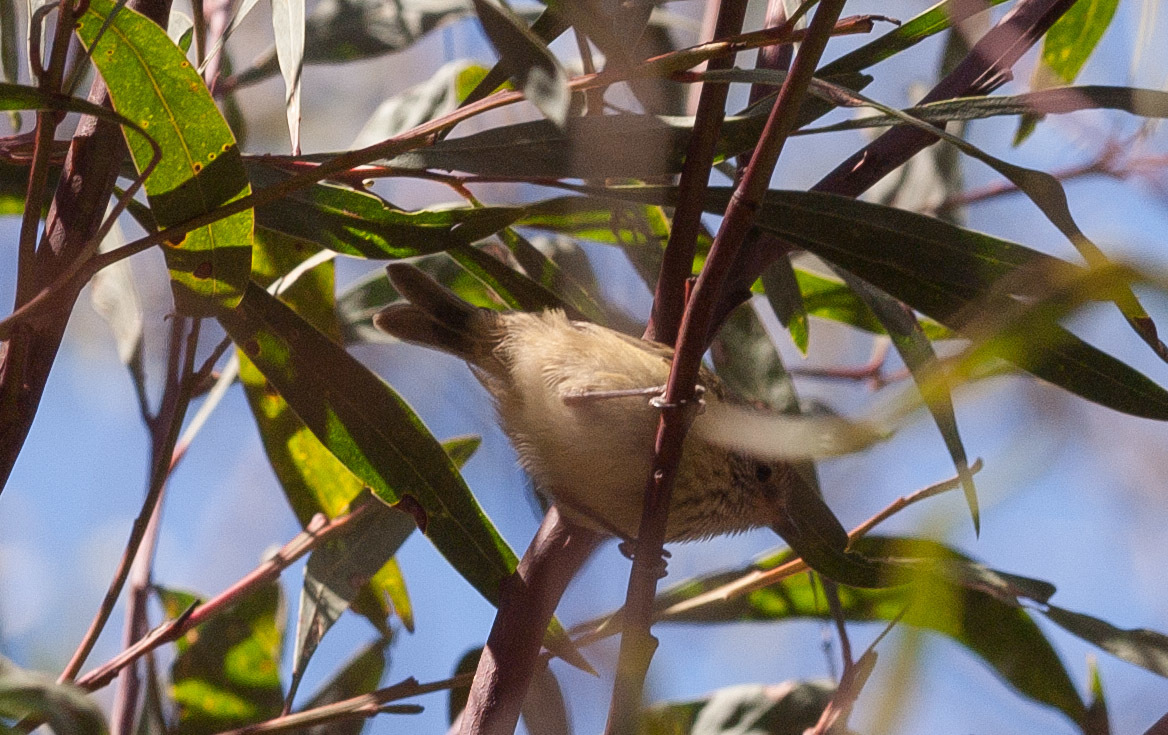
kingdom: Animalia
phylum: Chordata
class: Aves
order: Passeriformes
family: Acanthizidae
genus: Acanthiza
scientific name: Acanthiza lineata
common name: Striated thornbill
